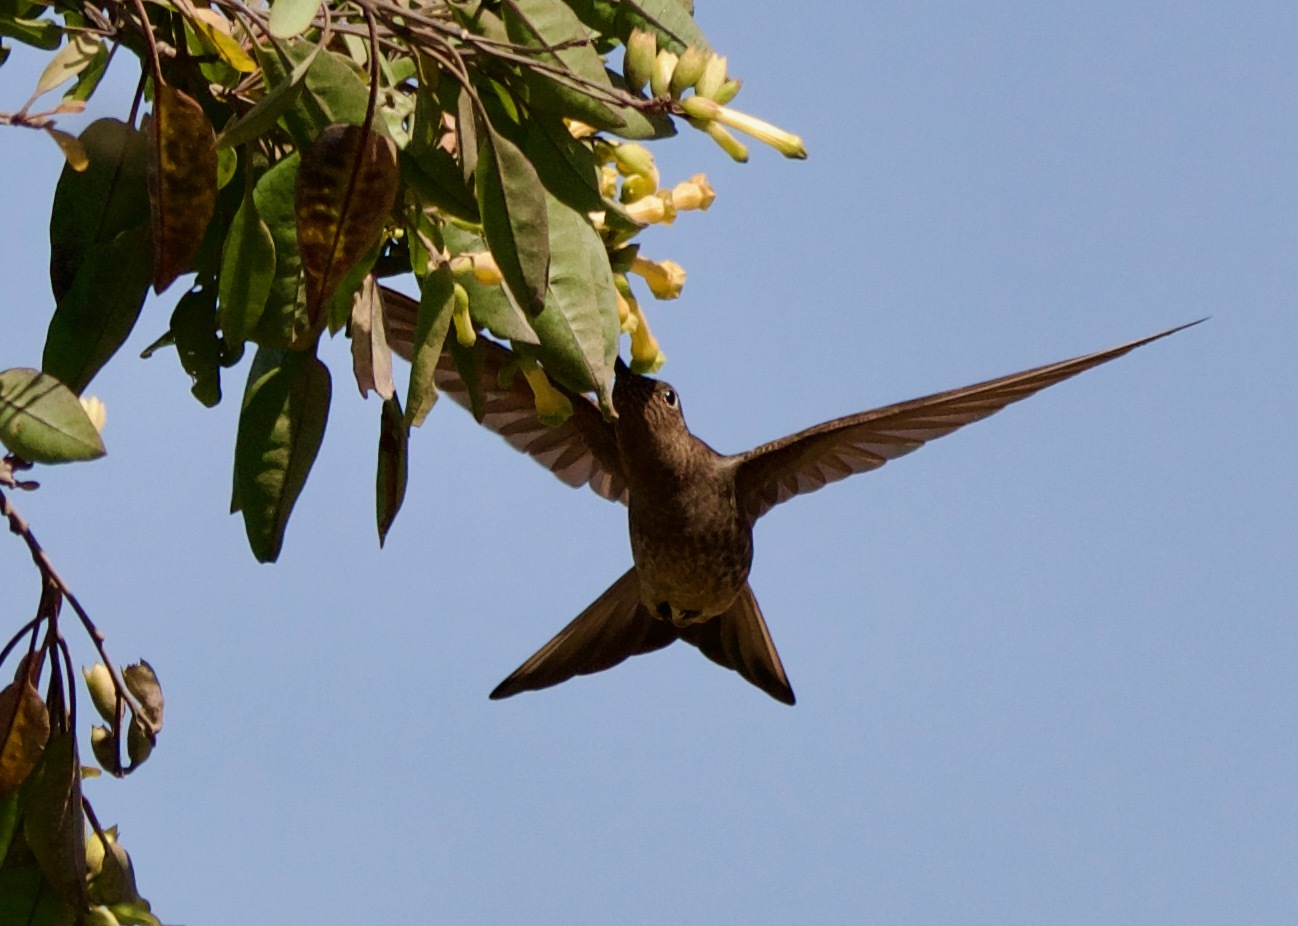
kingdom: Animalia
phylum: Chordata
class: Aves
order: Apodiformes
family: Trochilidae
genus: Patagona
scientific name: Patagona gigas
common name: Giant hummingbird
